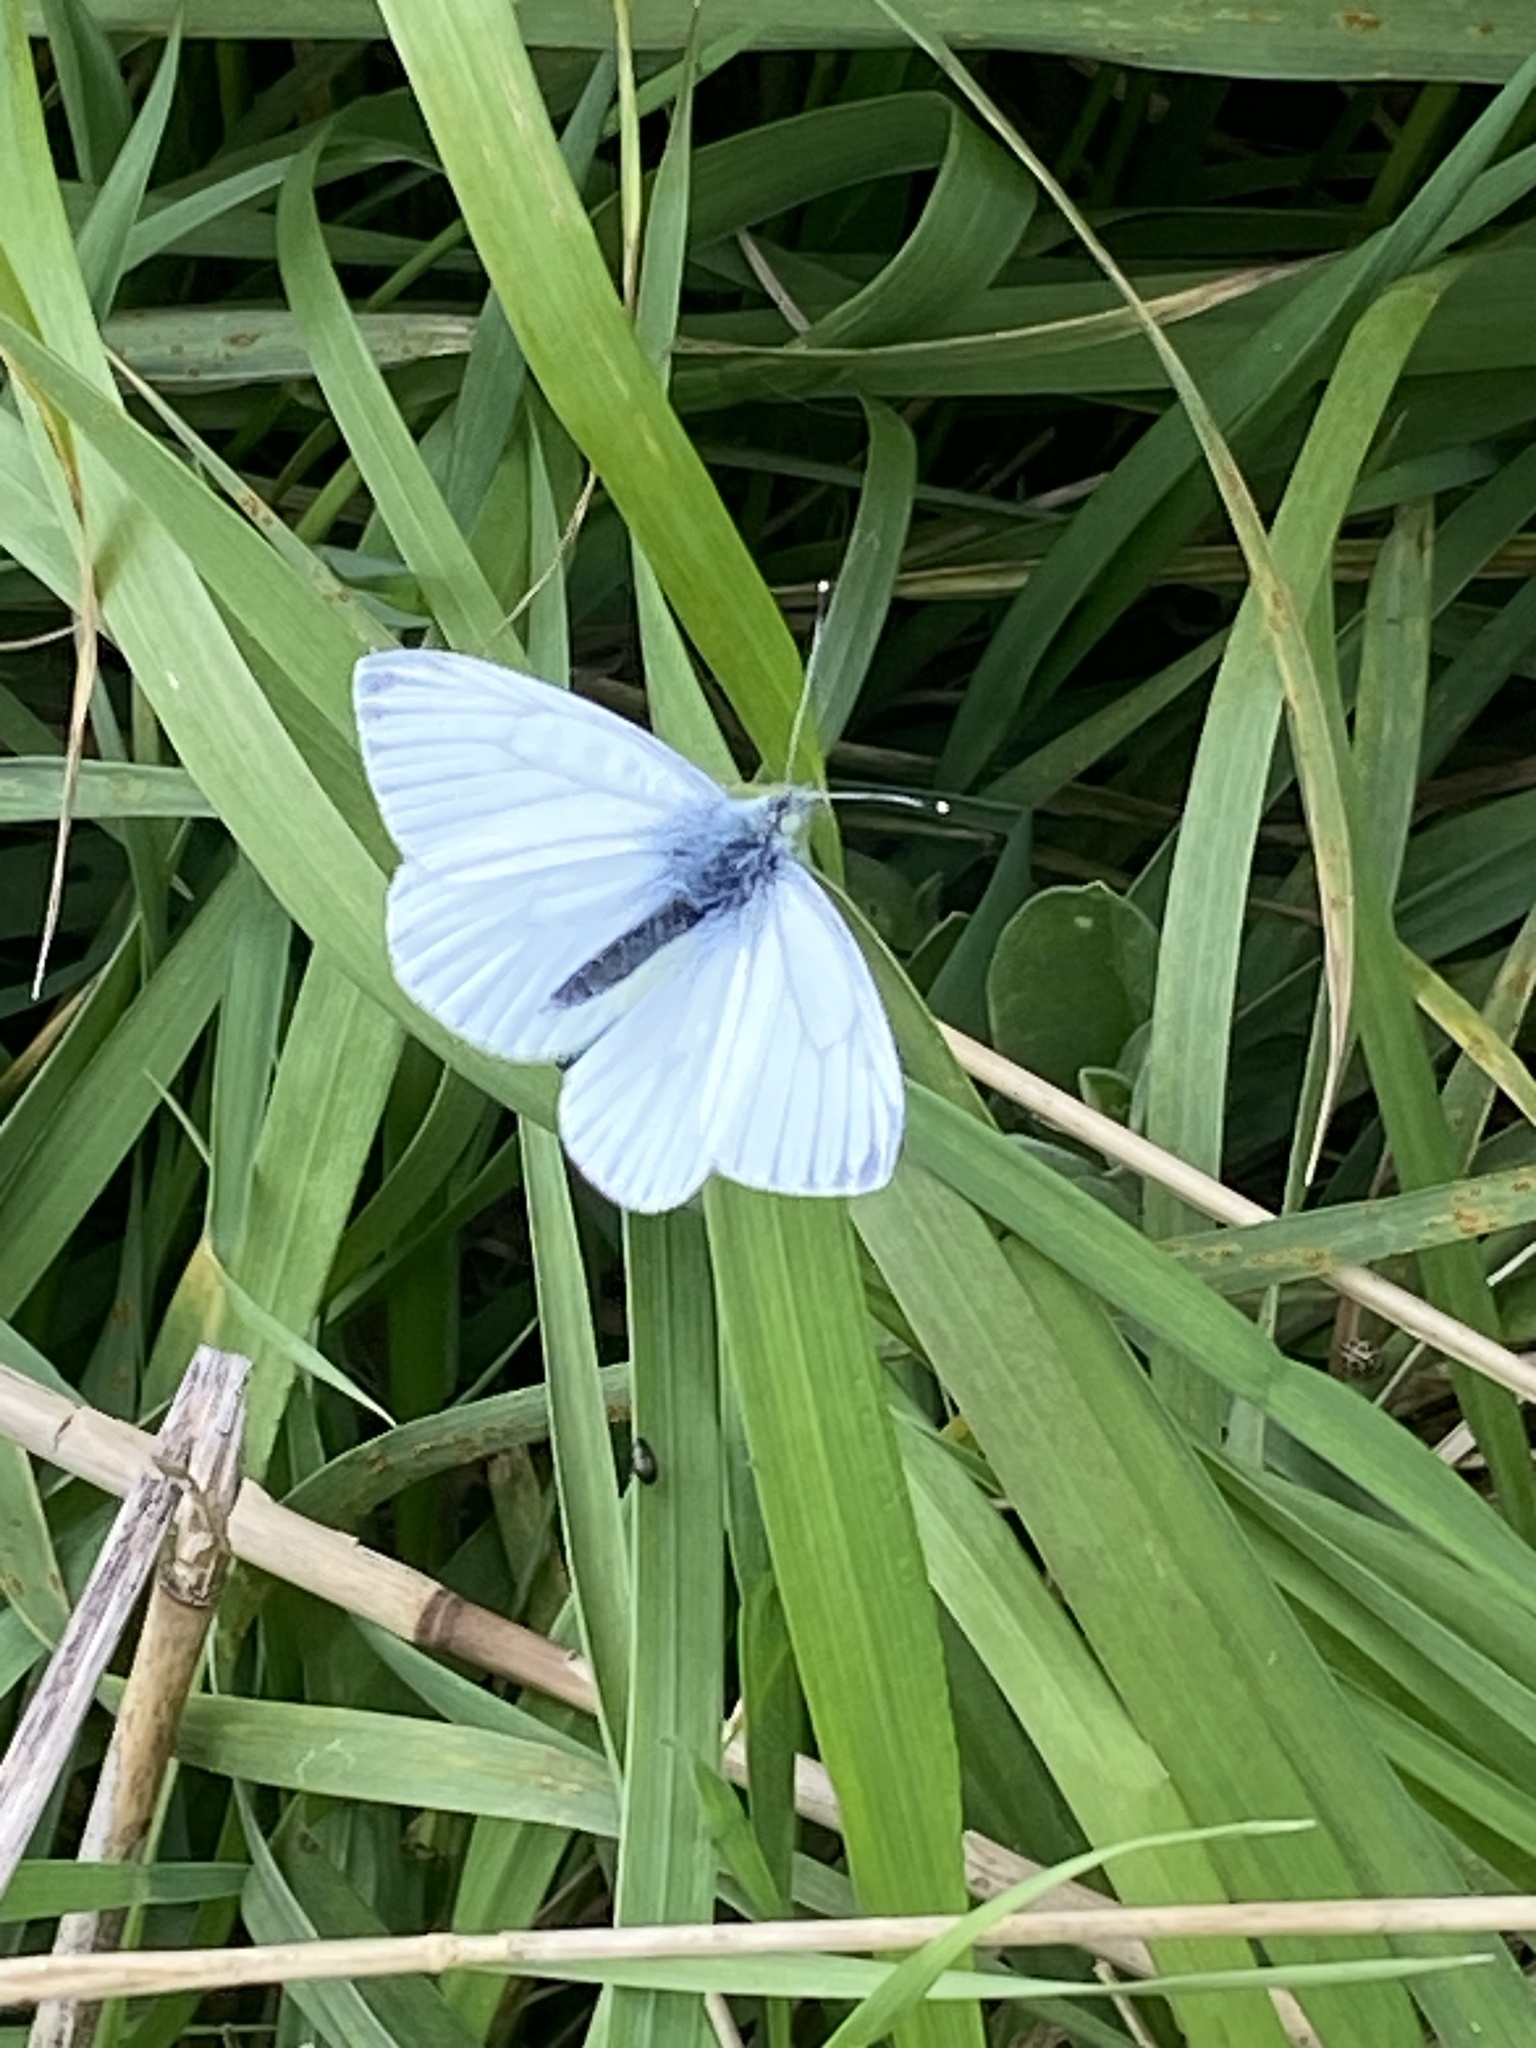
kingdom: Animalia
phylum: Arthropoda
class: Insecta
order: Lepidoptera
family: Pieridae
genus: Pieris
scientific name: Pieris napi
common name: Green-veined white
